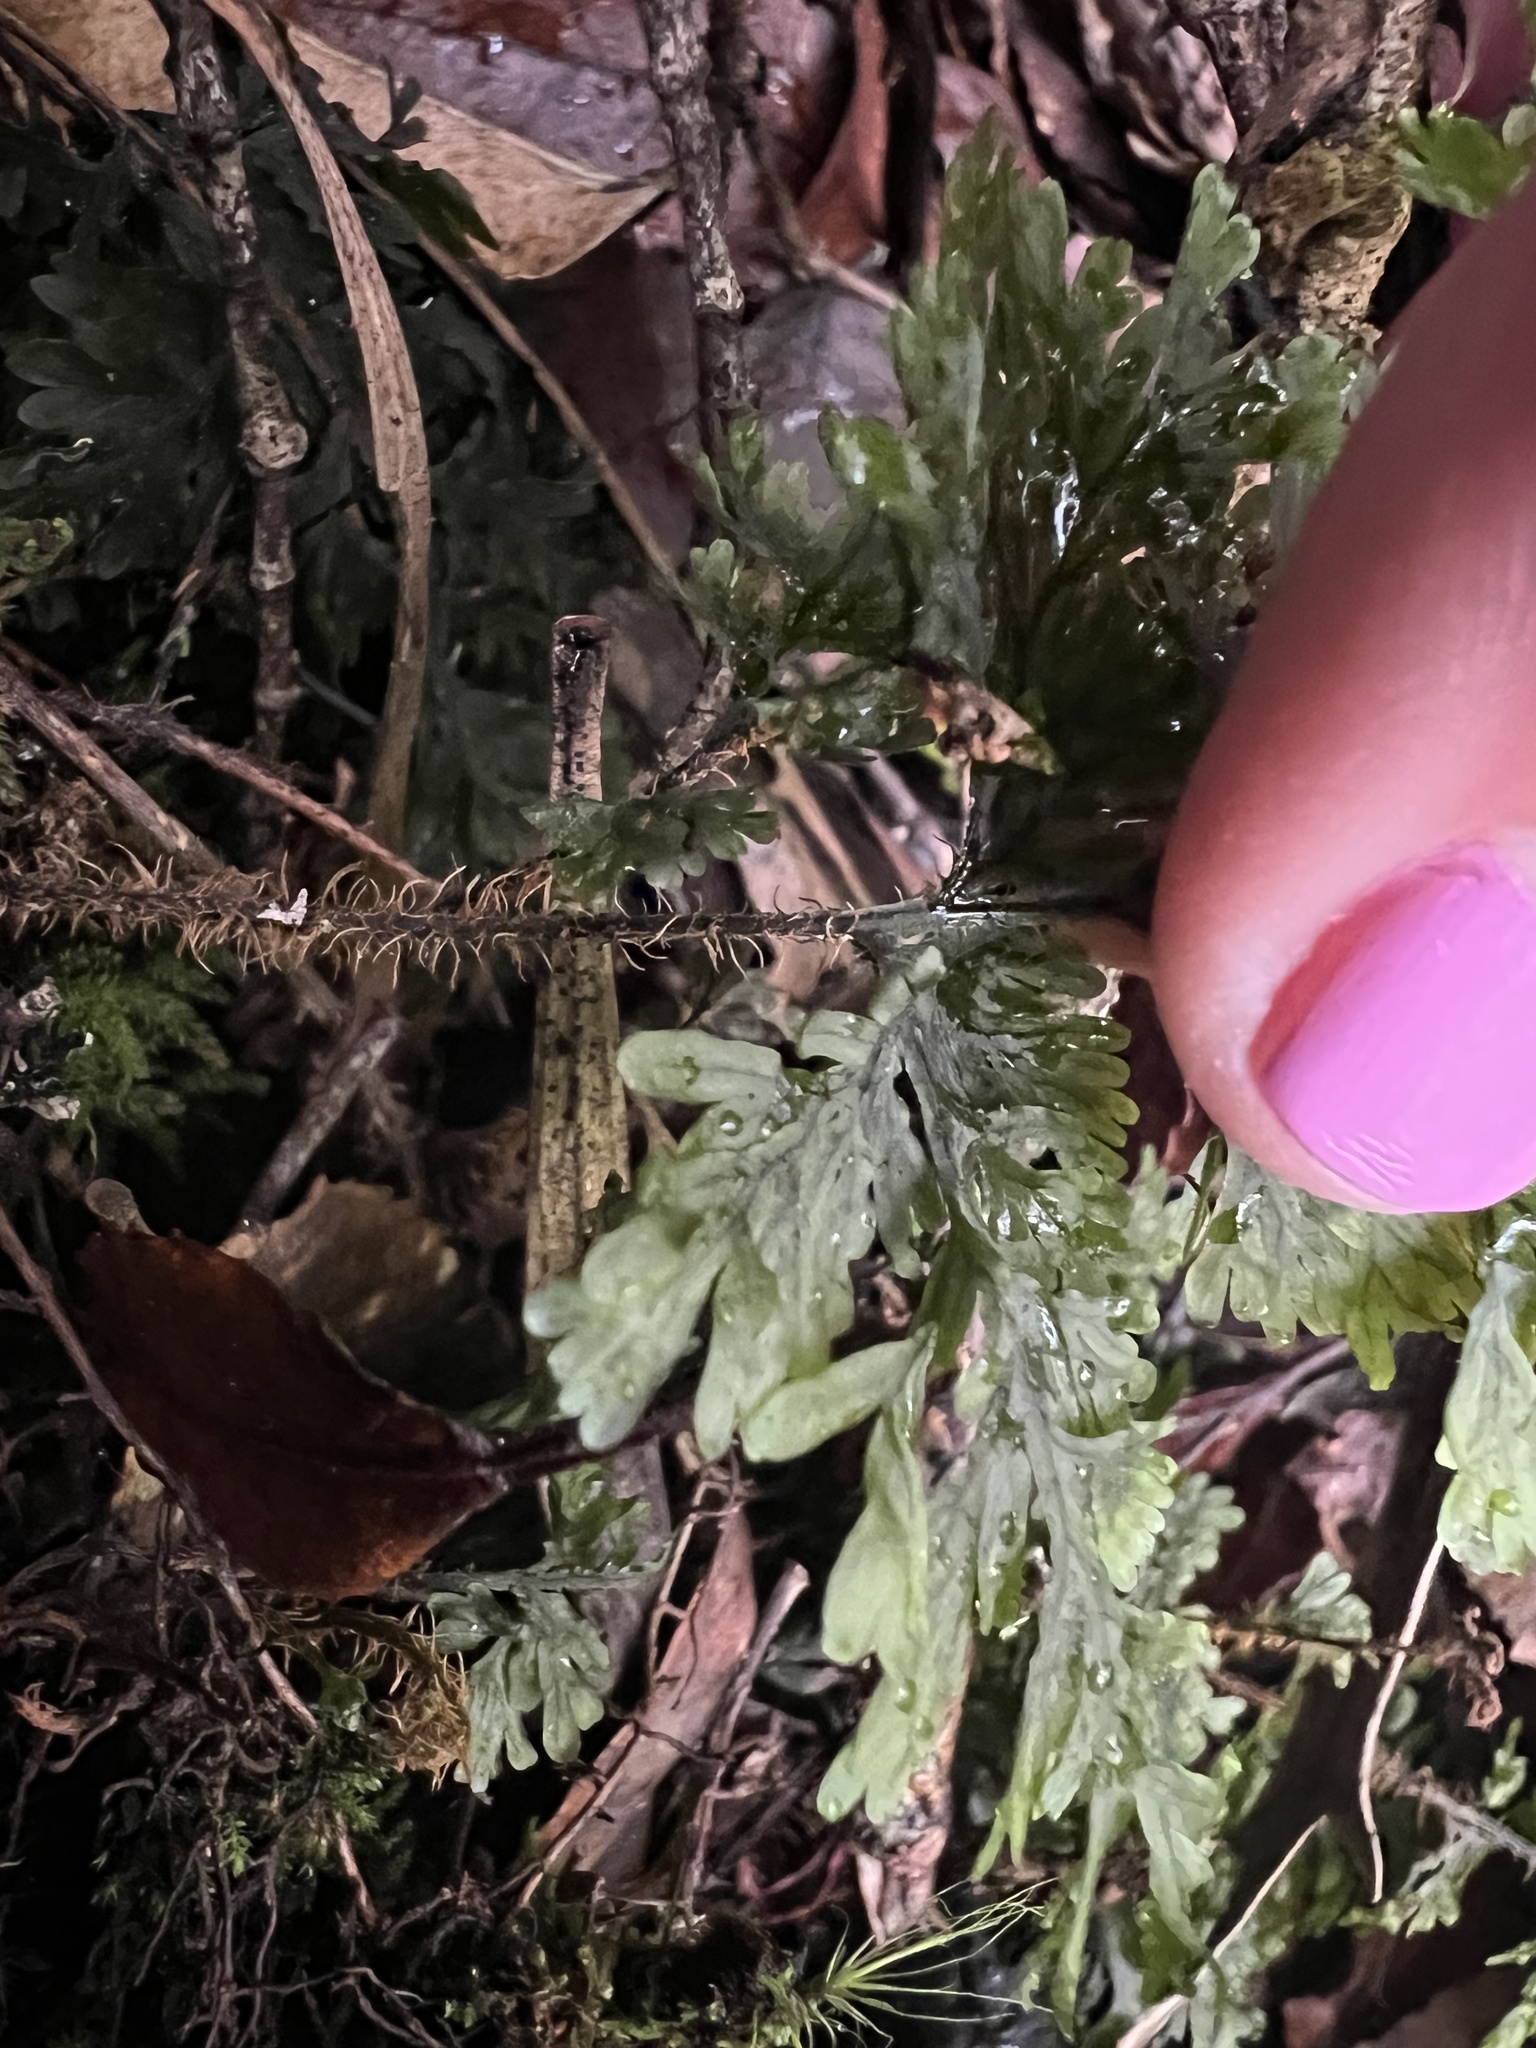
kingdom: Plantae
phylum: Tracheophyta
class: Polypodiopsida
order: Hymenophyllales
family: Hymenophyllaceae
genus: Hymenophyllum
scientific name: Hymenophyllum scabrum
